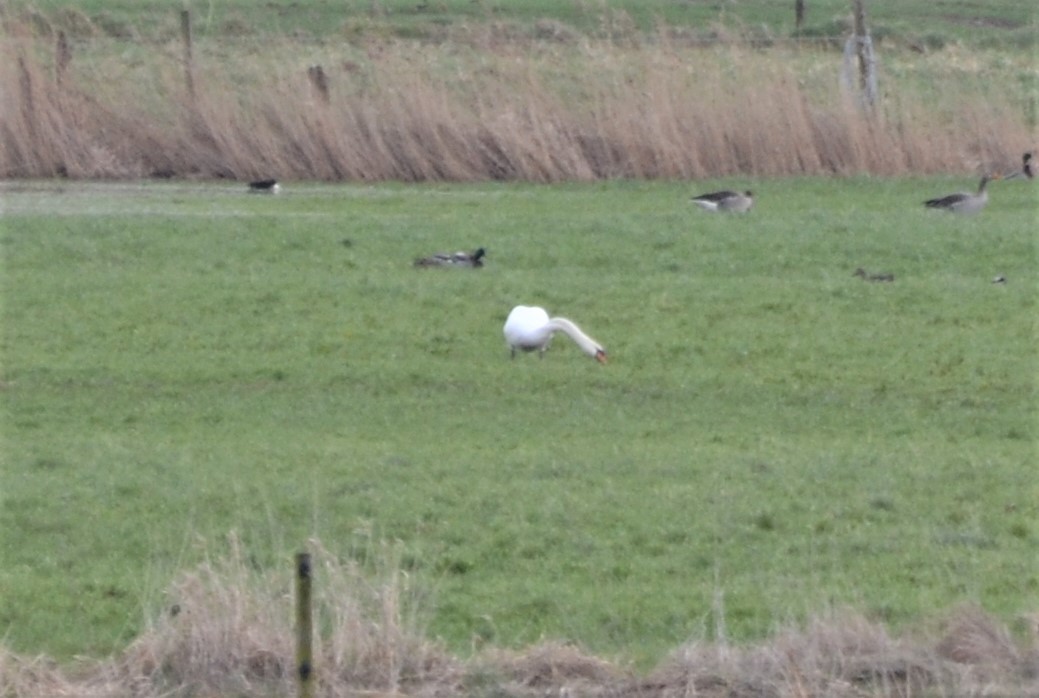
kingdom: Animalia
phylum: Chordata
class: Aves
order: Anseriformes
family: Anatidae
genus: Cygnus
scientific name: Cygnus olor
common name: Mute swan
